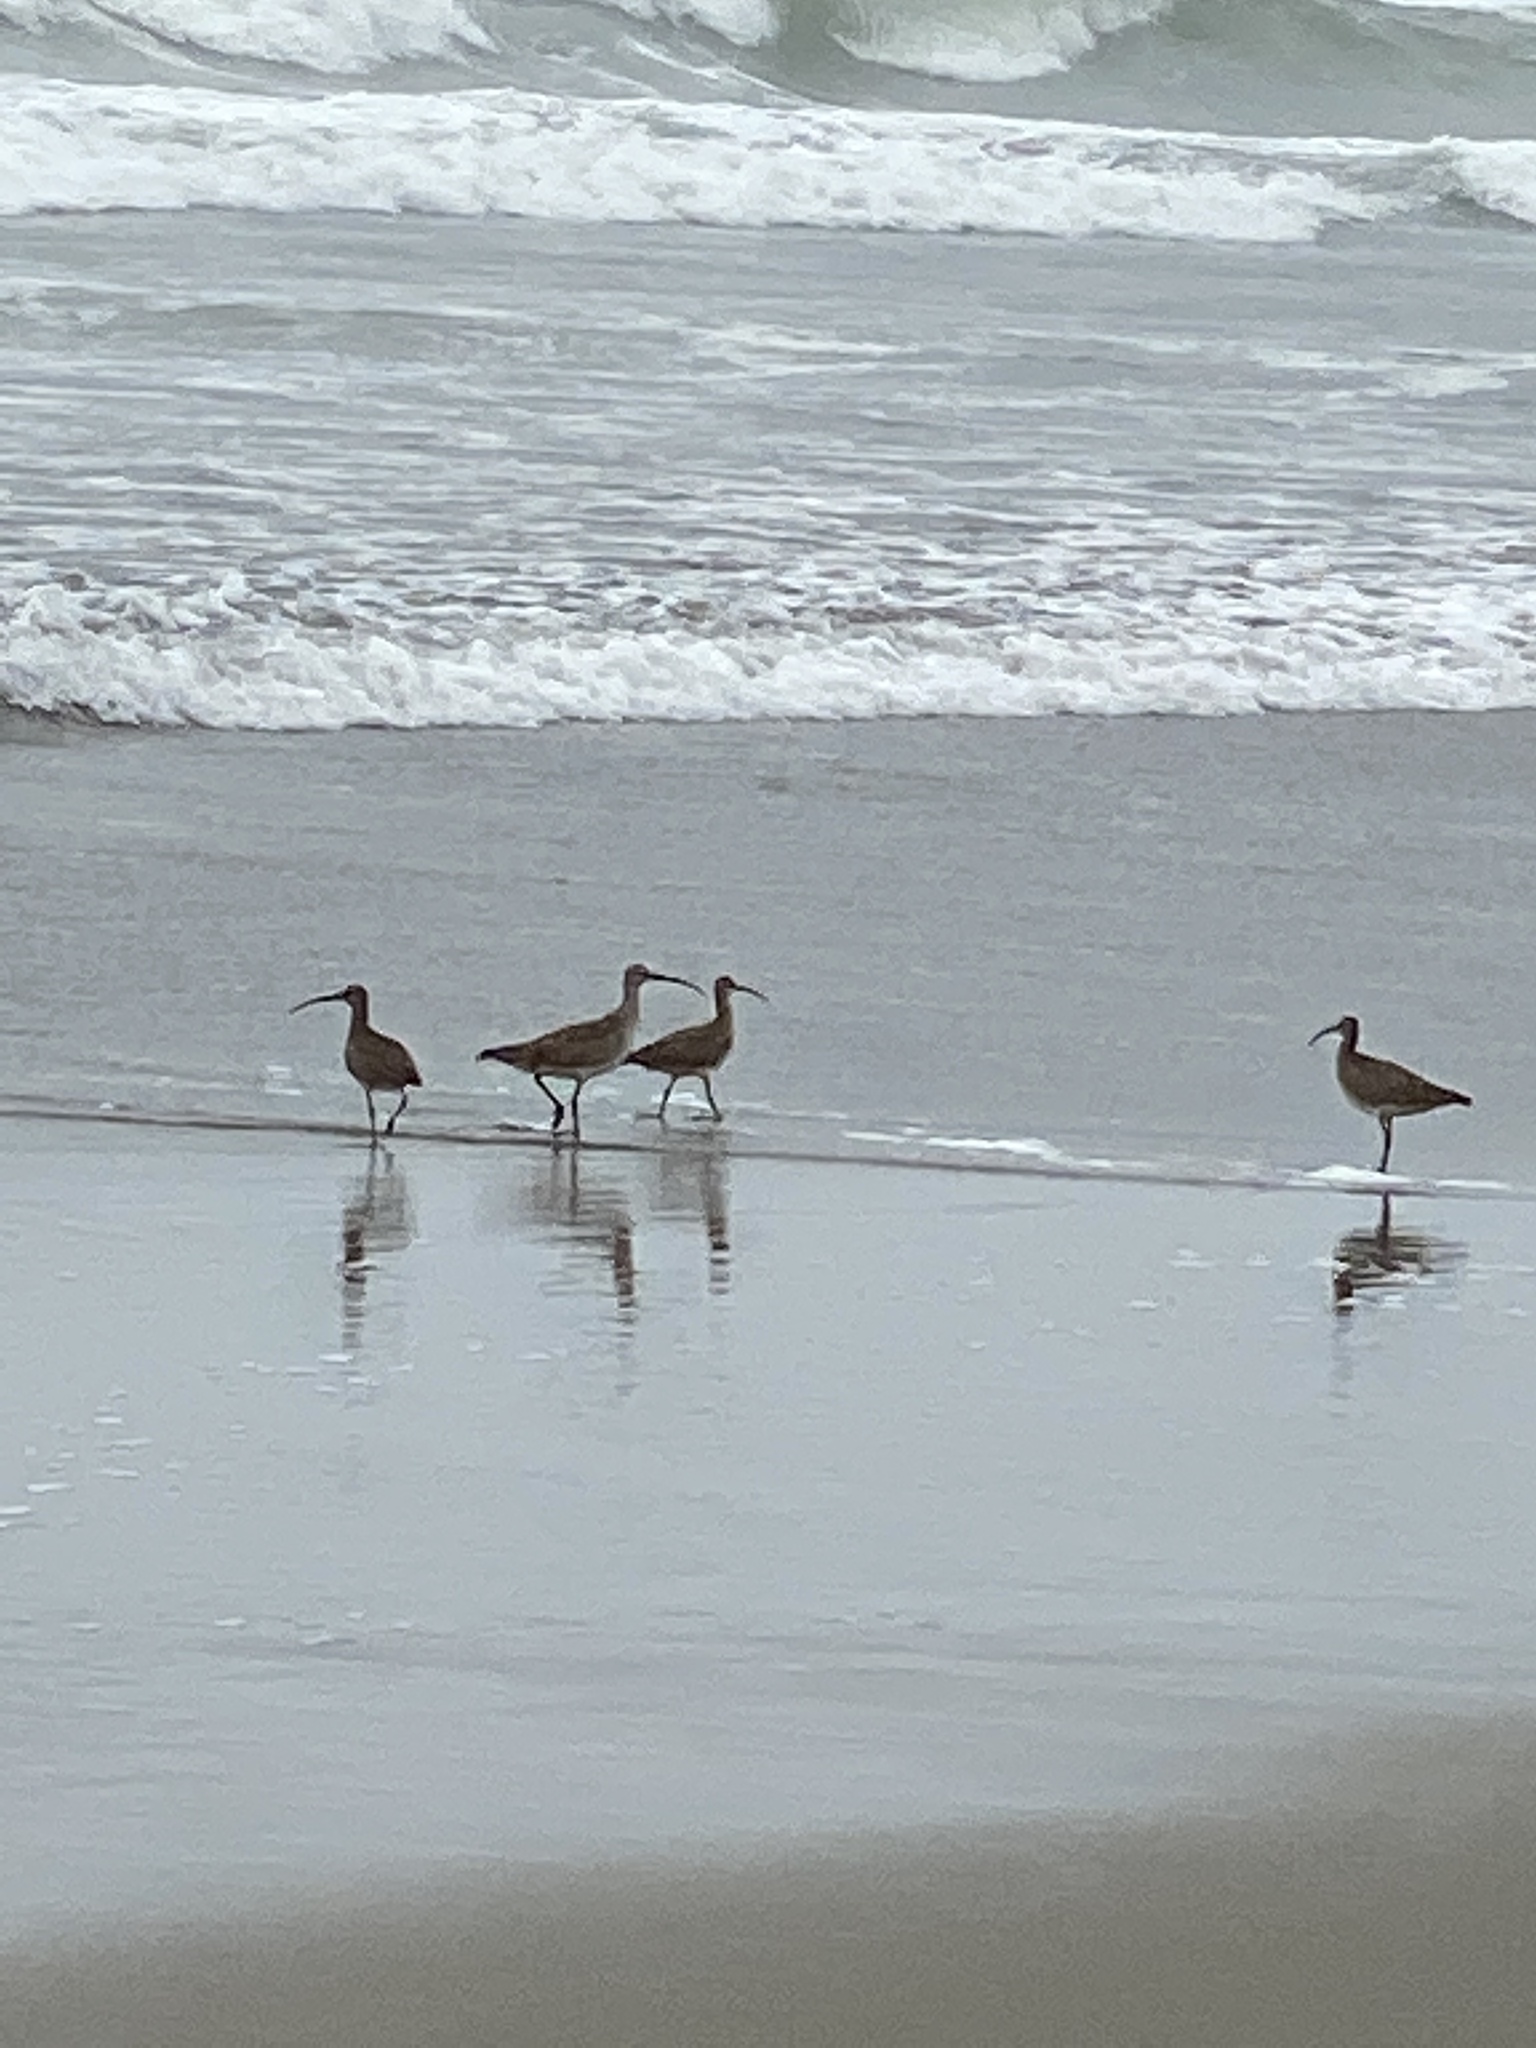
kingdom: Animalia
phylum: Chordata
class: Aves
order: Charadriiformes
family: Scolopacidae
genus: Numenius
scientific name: Numenius phaeopus
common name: Whimbrel
